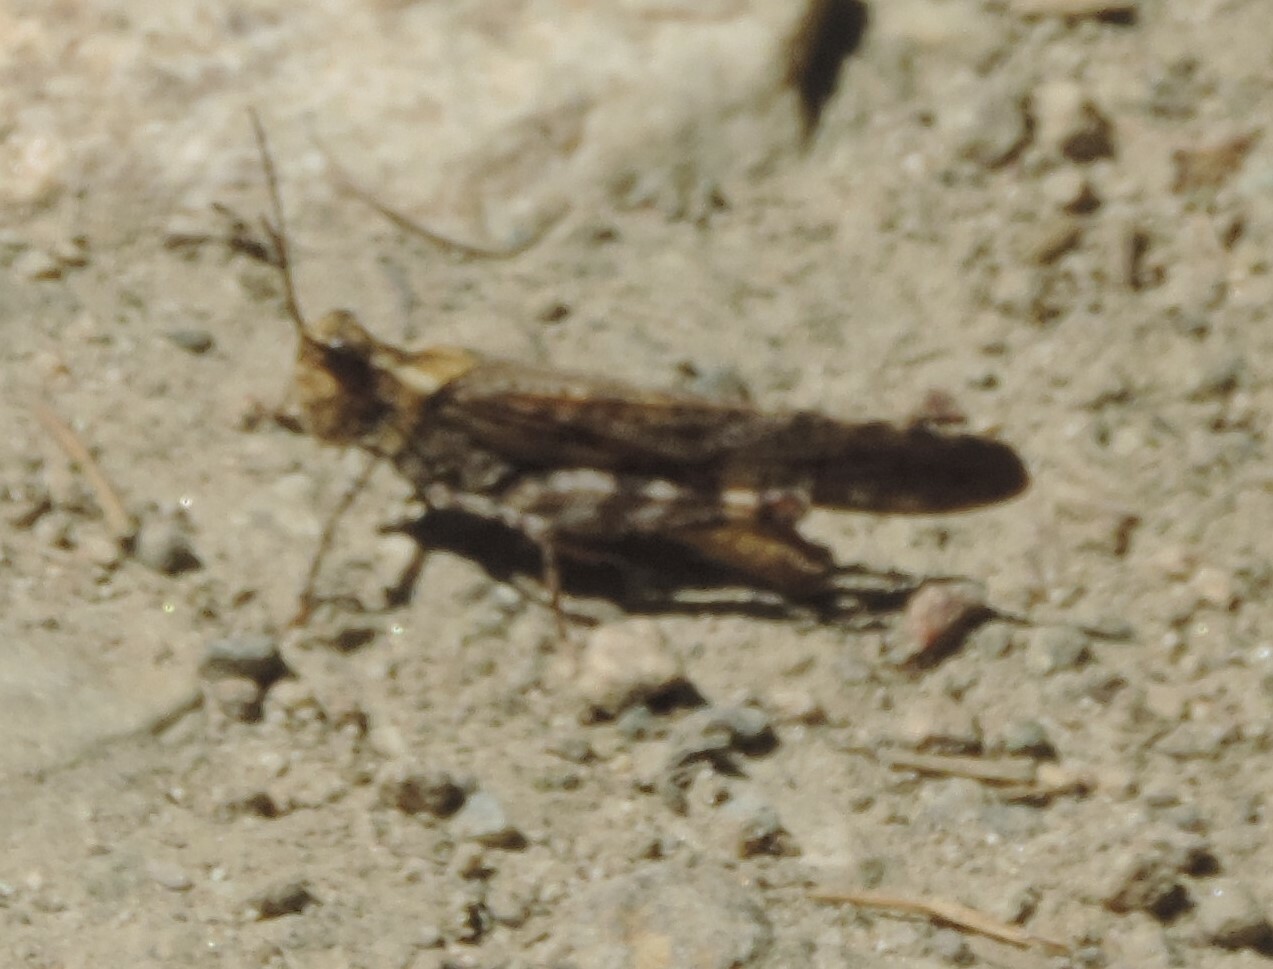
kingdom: Animalia
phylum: Arthropoda
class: Insecta
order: Orthoptera
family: Acrididae
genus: Trimerotropis
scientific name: Trimerotropis verruculata
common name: Crackling forest grasshopper
